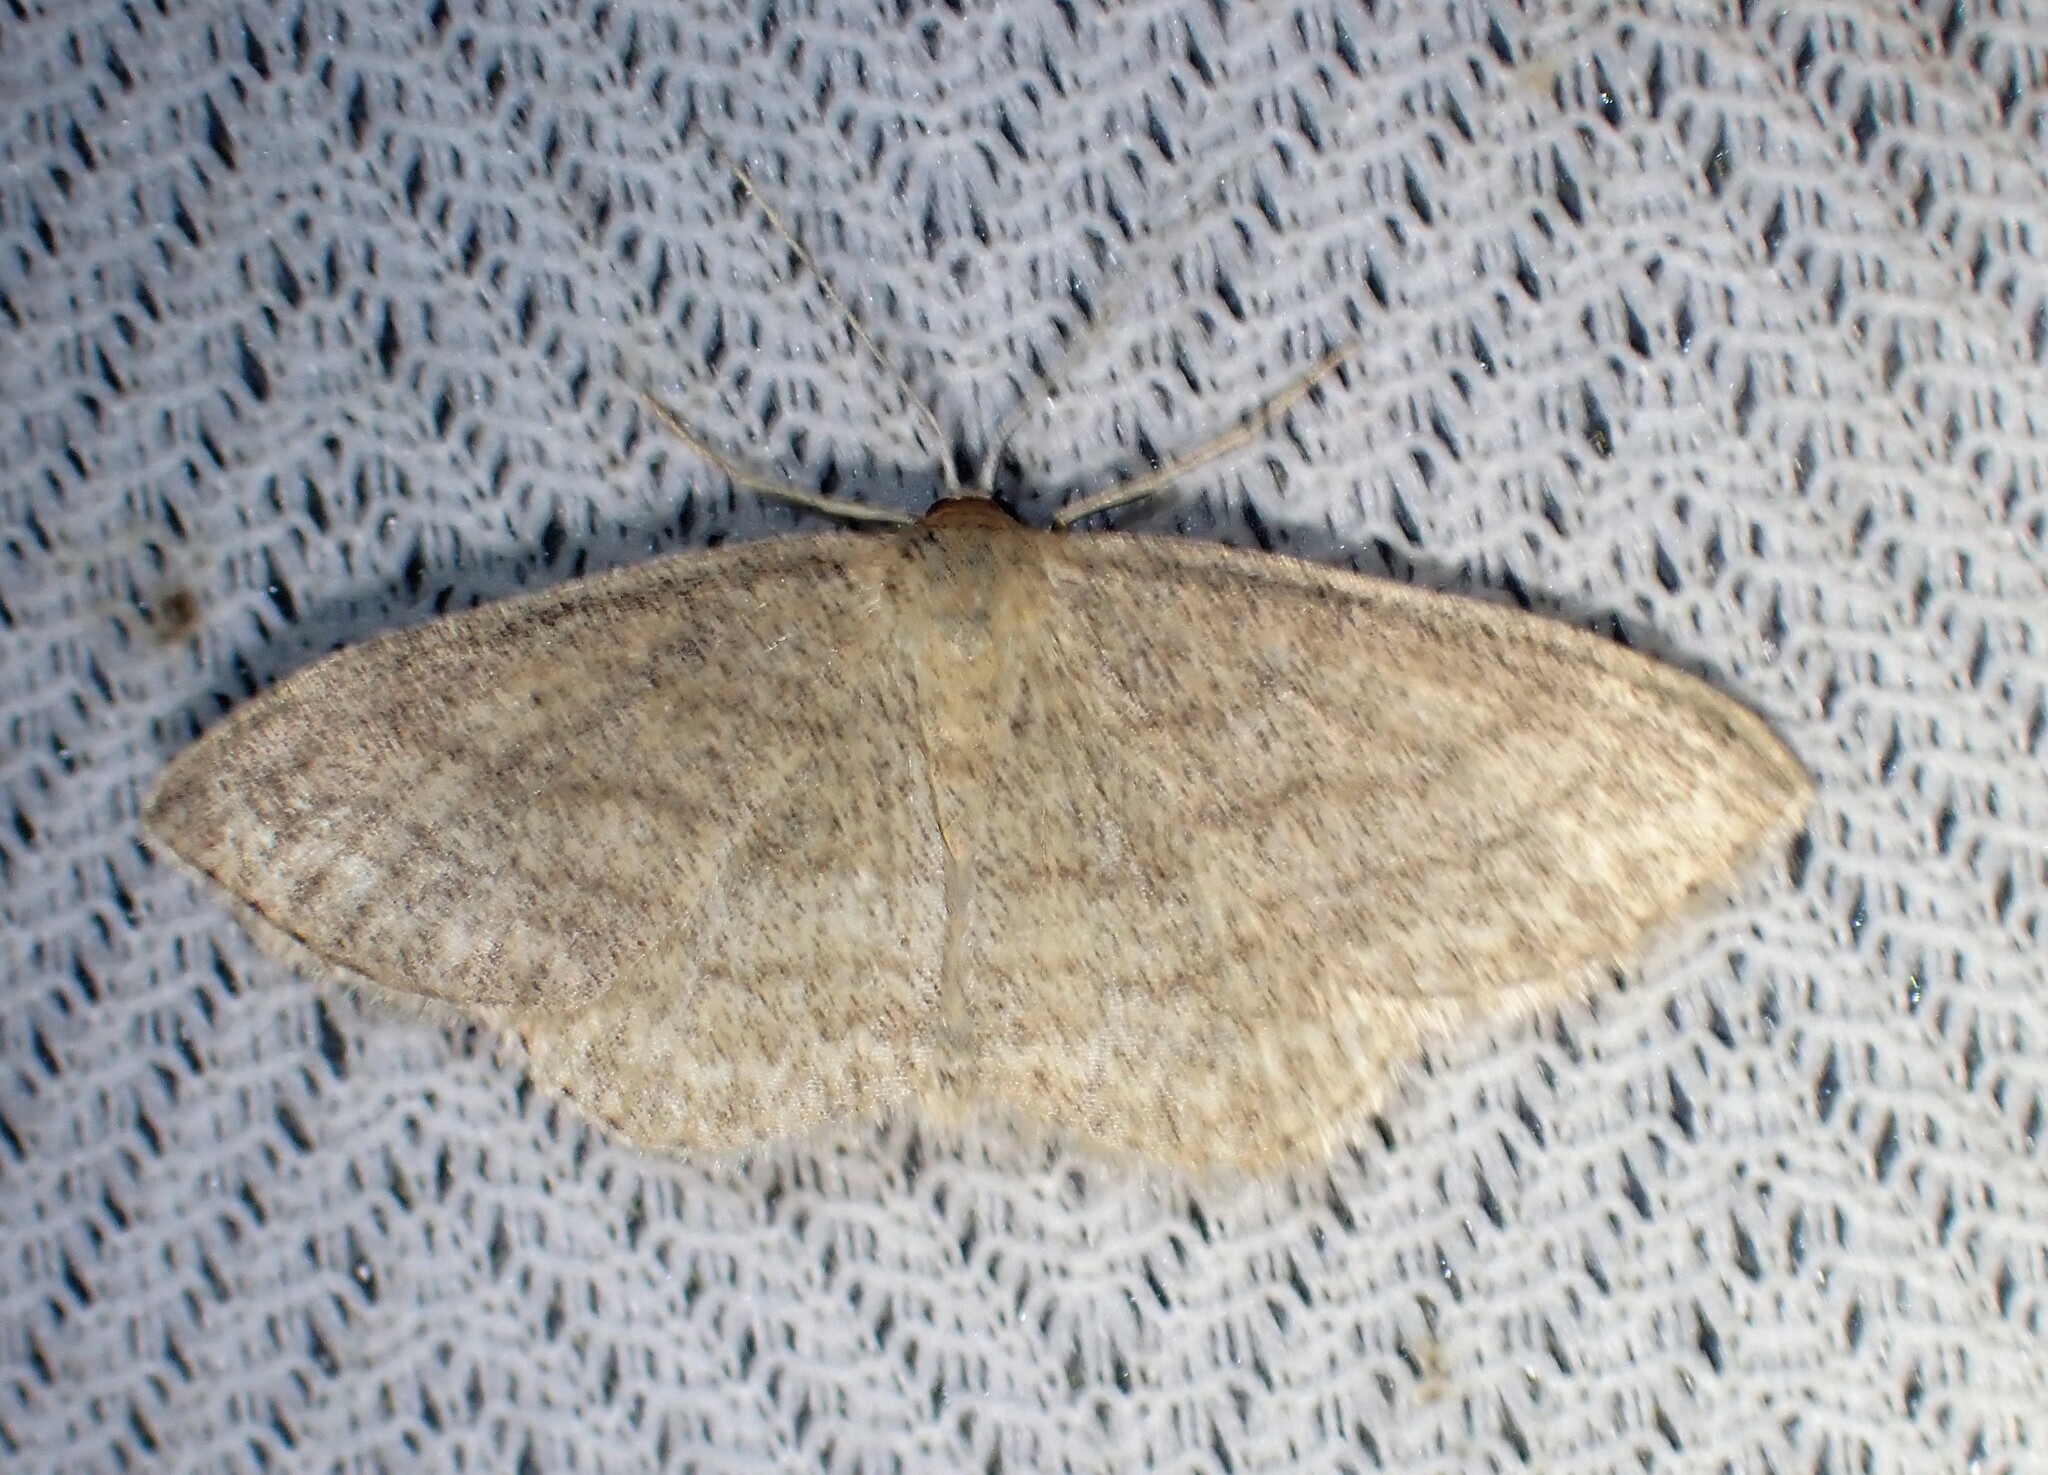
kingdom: Animalia
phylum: Arthropoda
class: Insecta
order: Lepidoptera
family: Geometridae
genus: Scopula
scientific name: Scopula inductata
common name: Soft-lined wave
